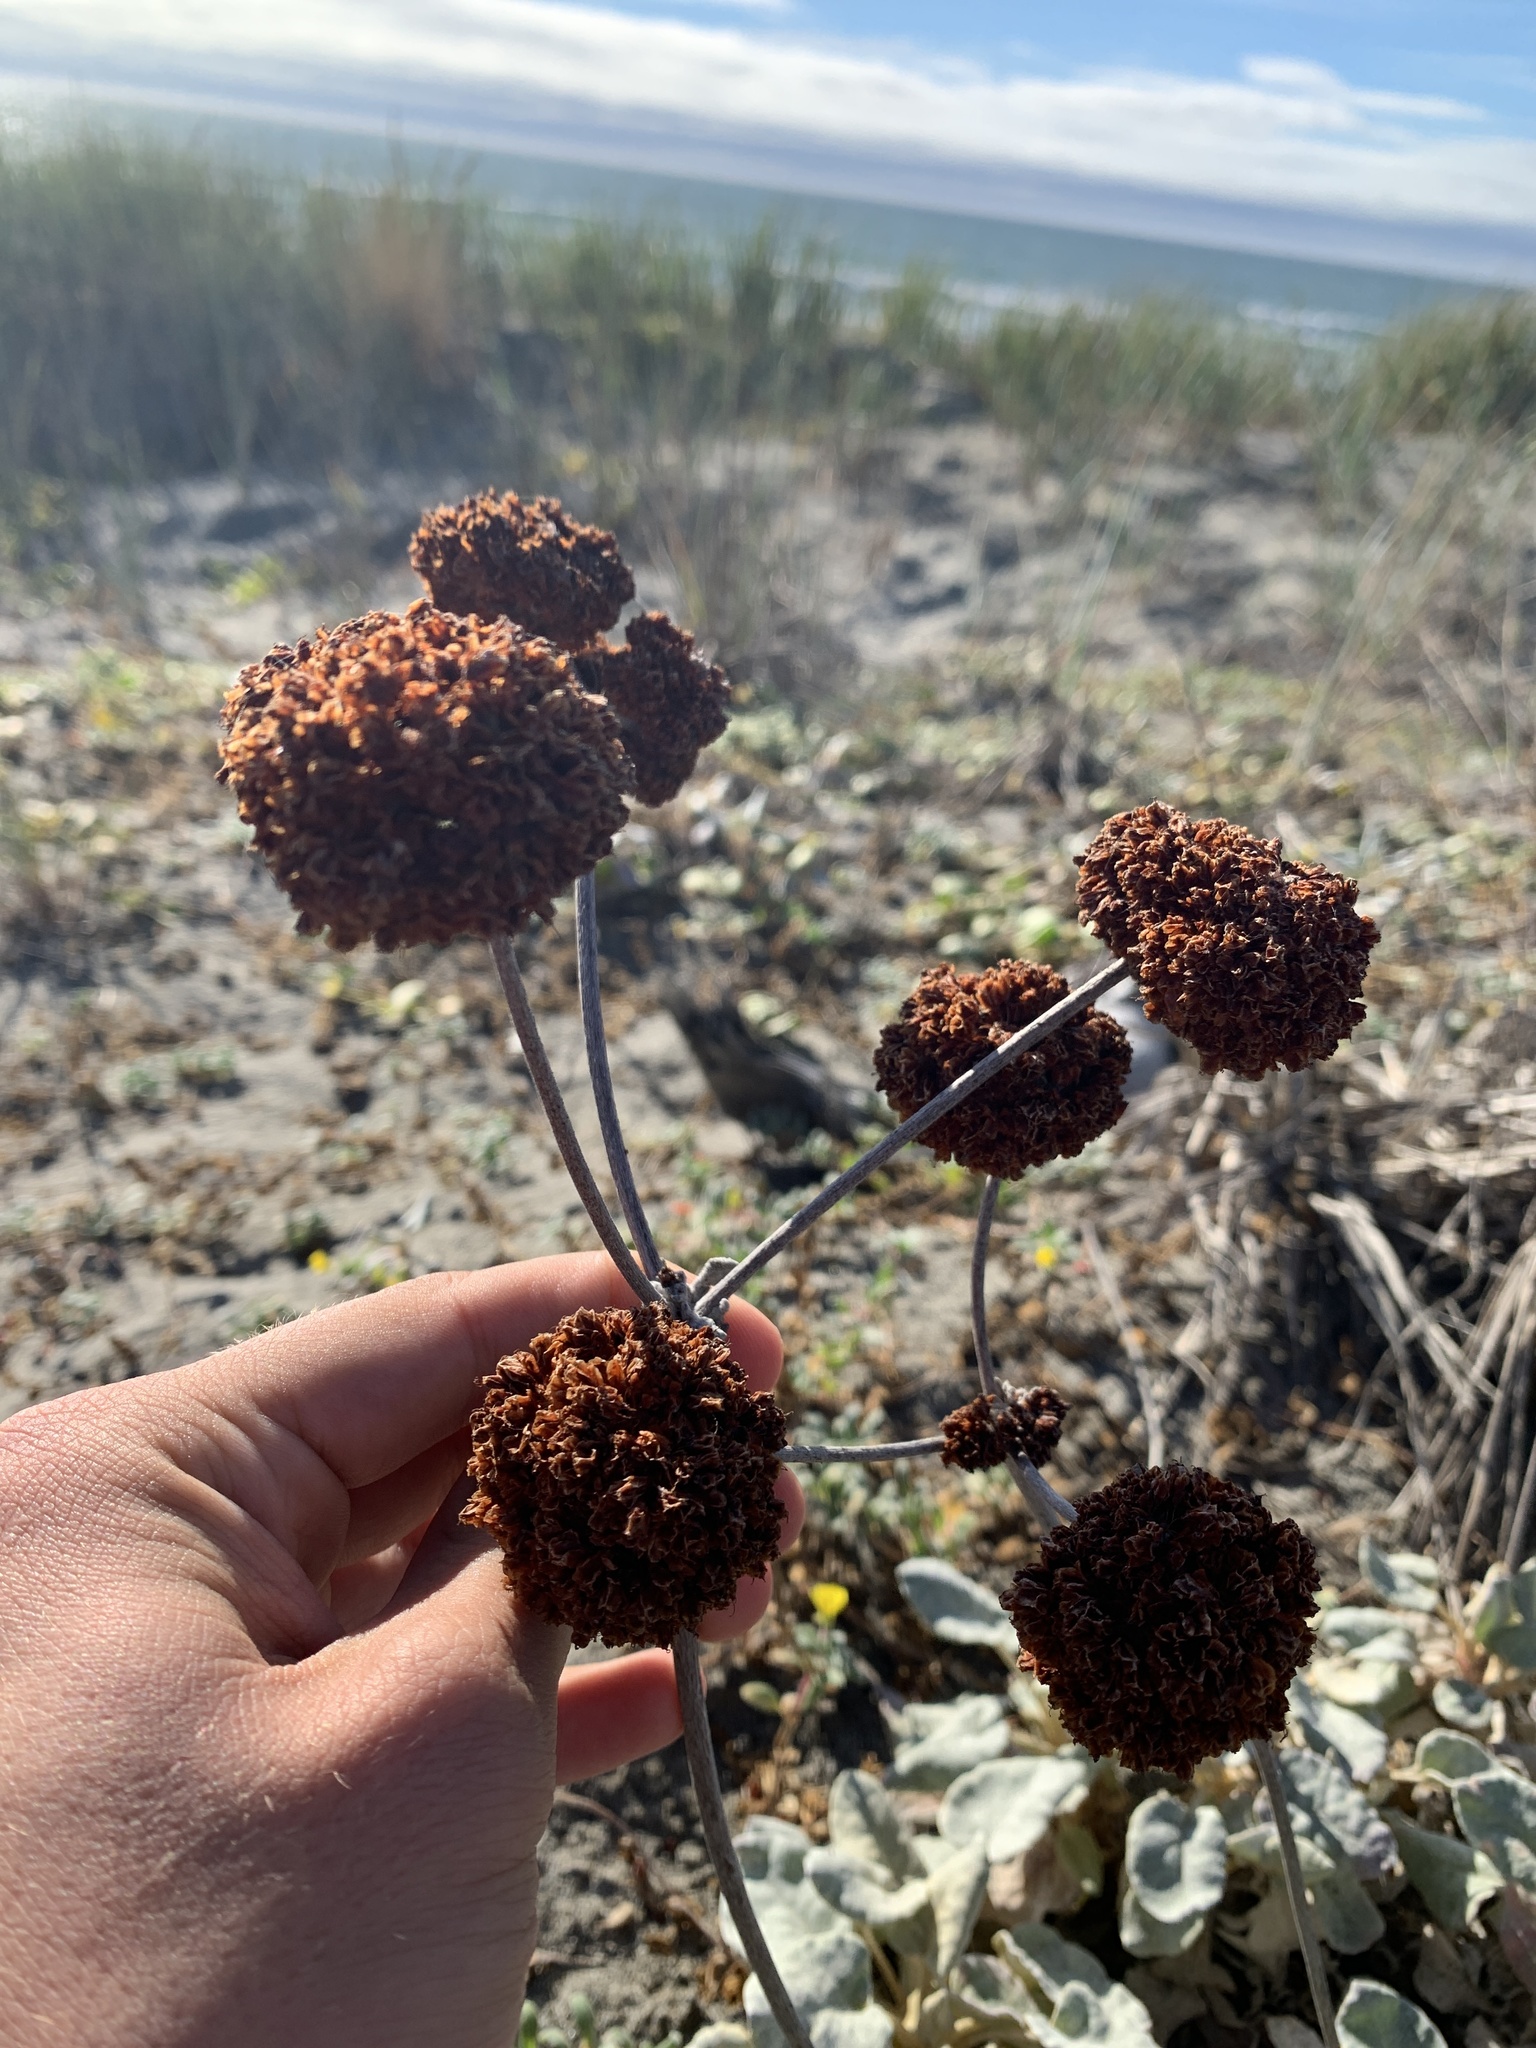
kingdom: Plantae
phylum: Tracheophyta
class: Magnoliopsida
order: Caryophyllales
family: Polygonaceae
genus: Eriogonum
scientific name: Eriogonum latifolium
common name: Seaside wild buckwheat
